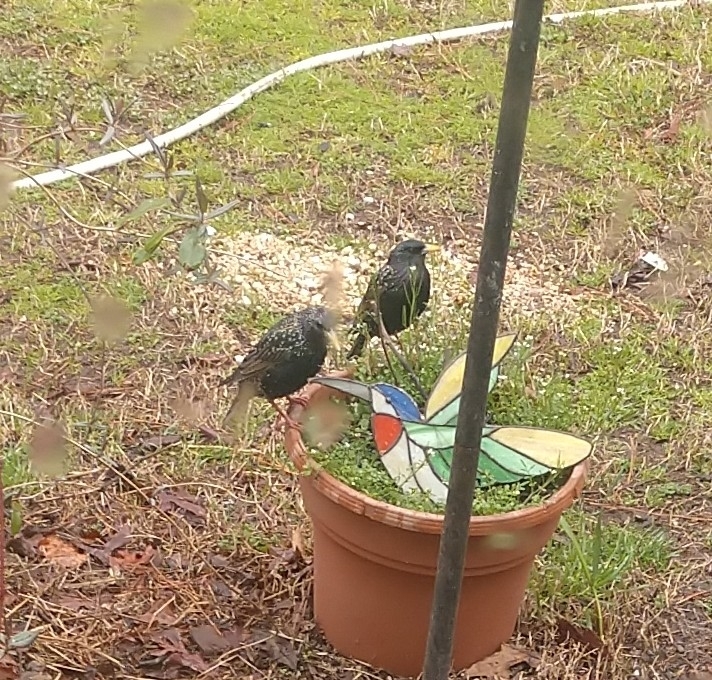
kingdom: Animalia
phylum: Chordata
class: Aves
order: Passeriformes
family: Sturnidae
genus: Sturnus
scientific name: Sturnus vulgaris
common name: Common starling
